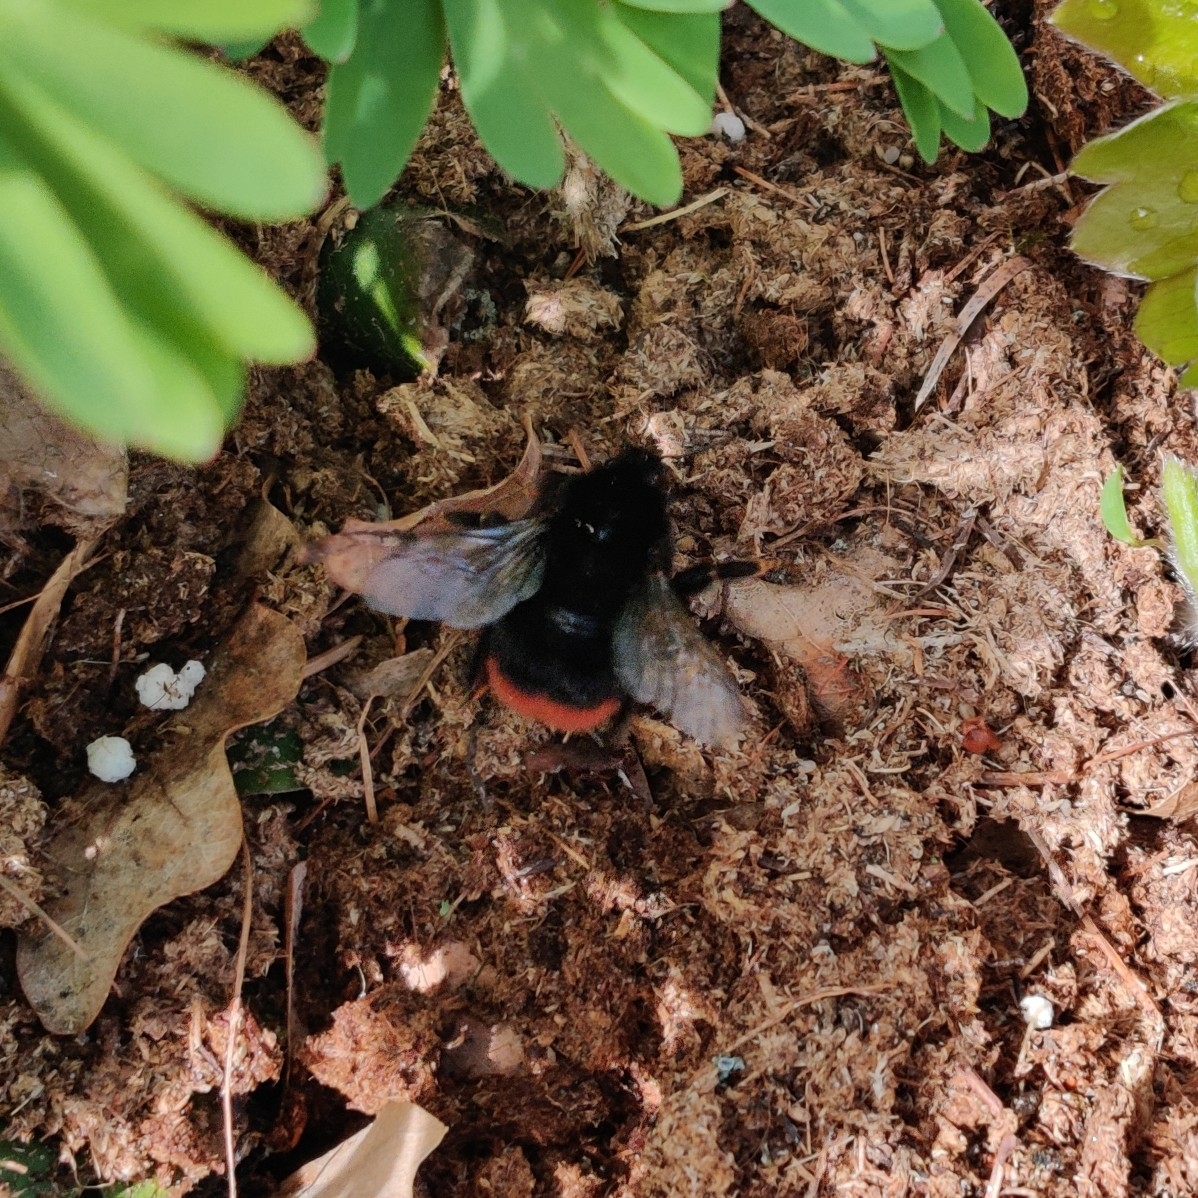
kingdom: Animalia
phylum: Arthropoda
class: Insecta
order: Hymenoptera
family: Apidae
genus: Bombus
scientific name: Bombus lapidarius
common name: Large red-tailed humble-bee
